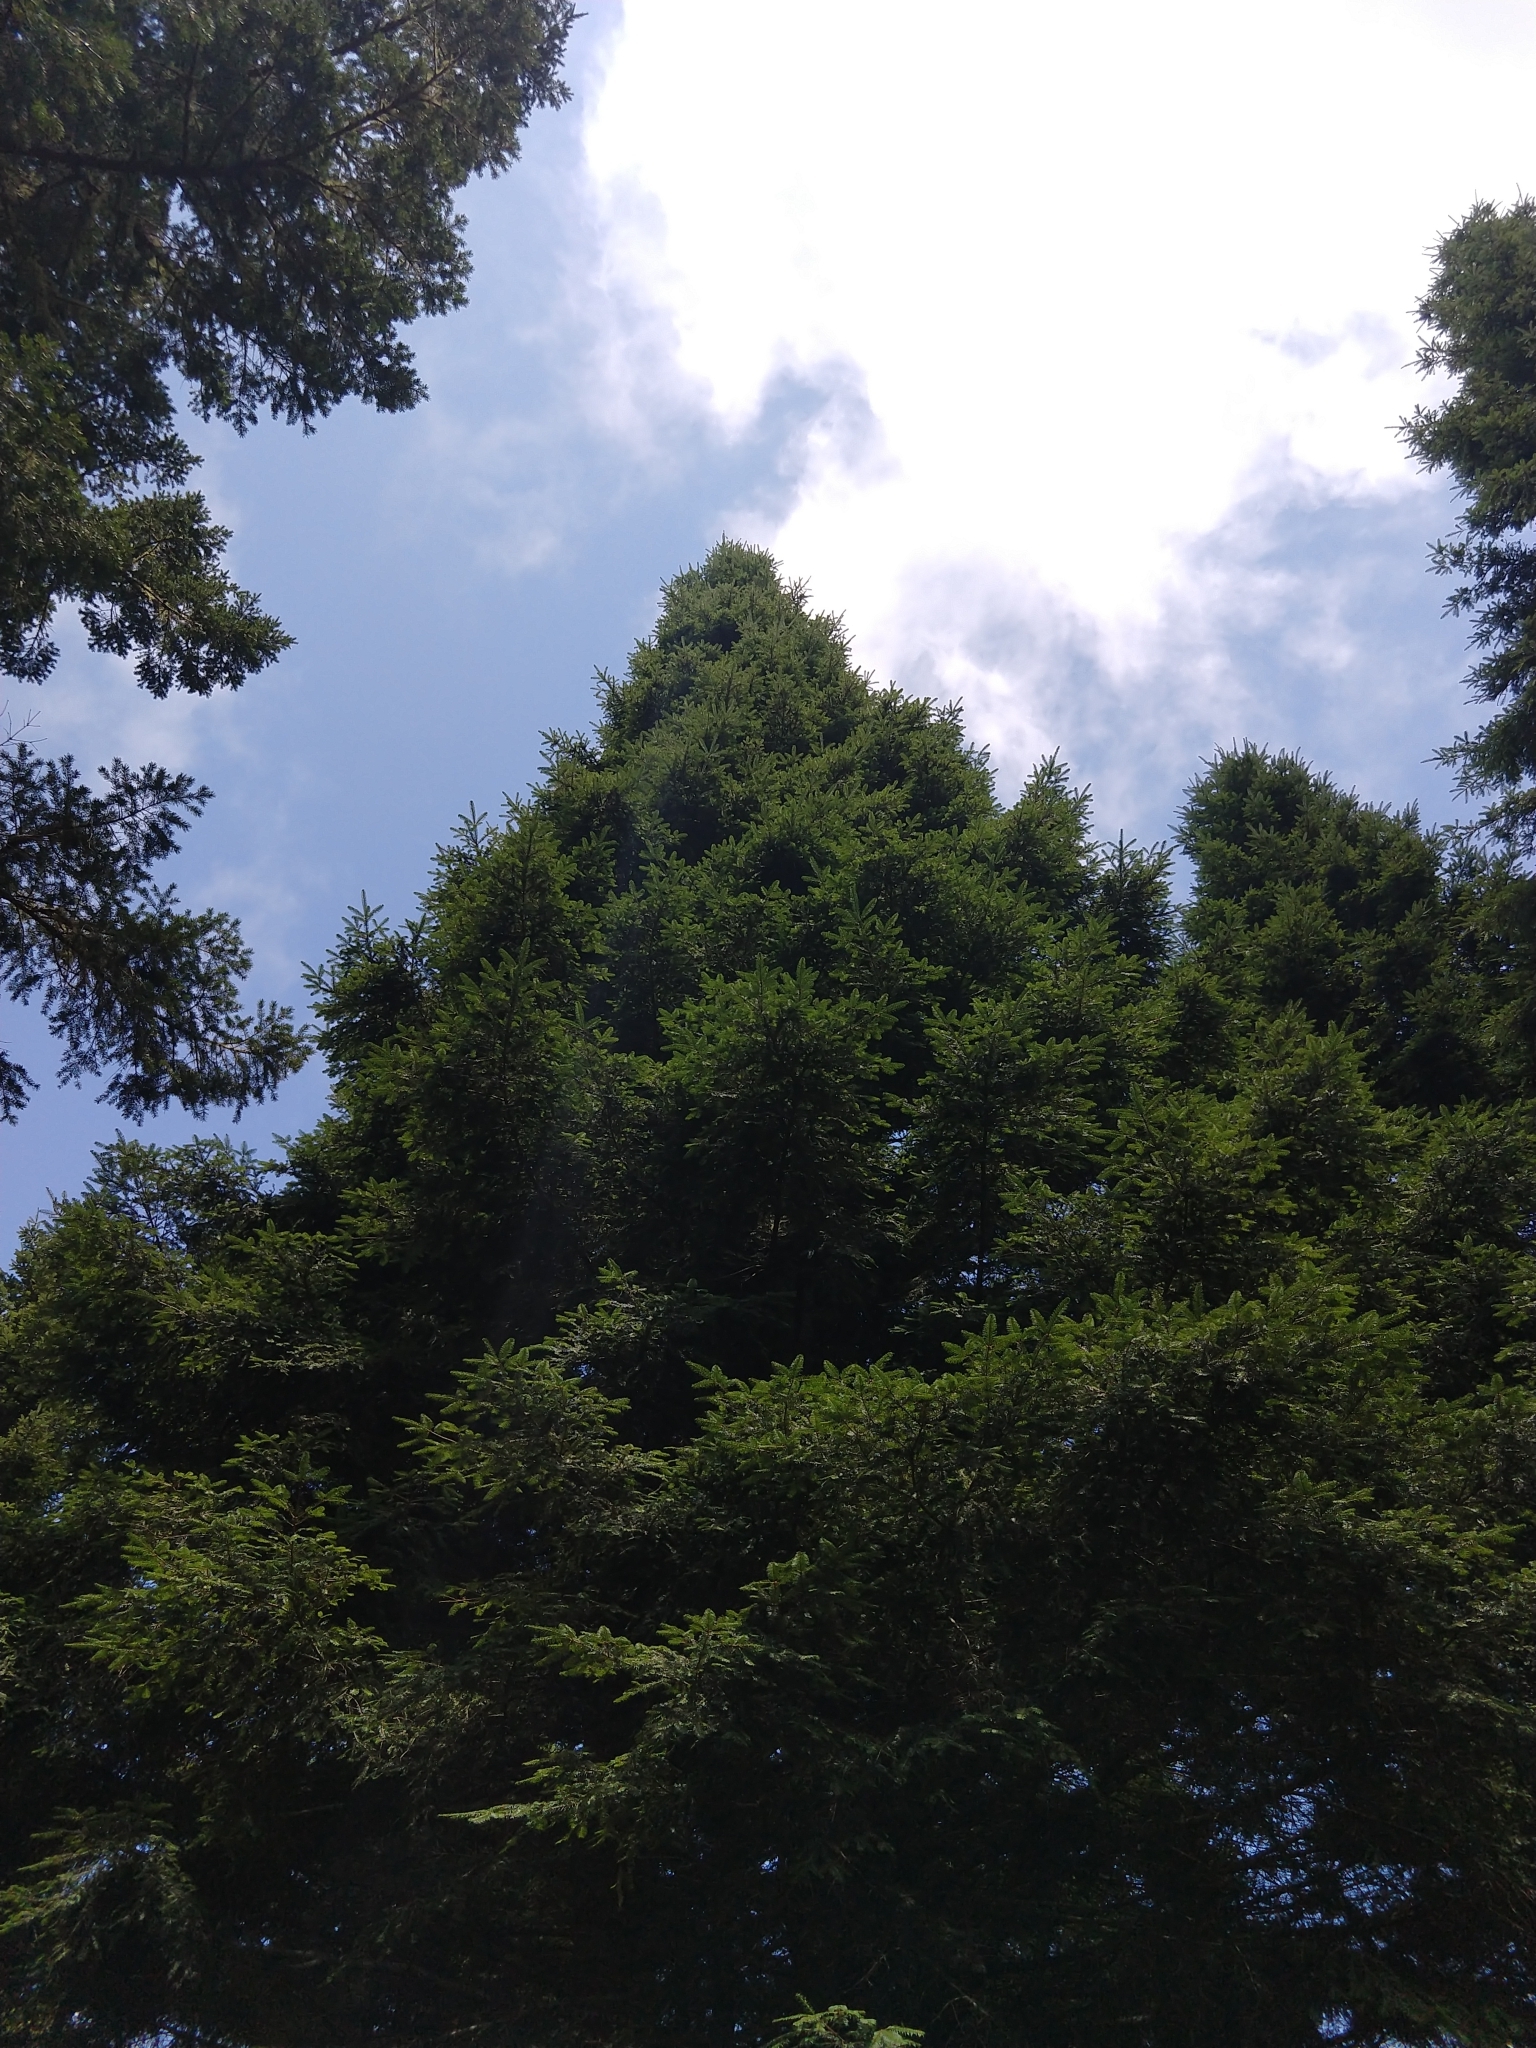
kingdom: Plantae
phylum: Tracheophyta
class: Pinopsida
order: Pinales
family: Pinaceae
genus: Abies
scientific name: Abies grandis
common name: Giant fir
